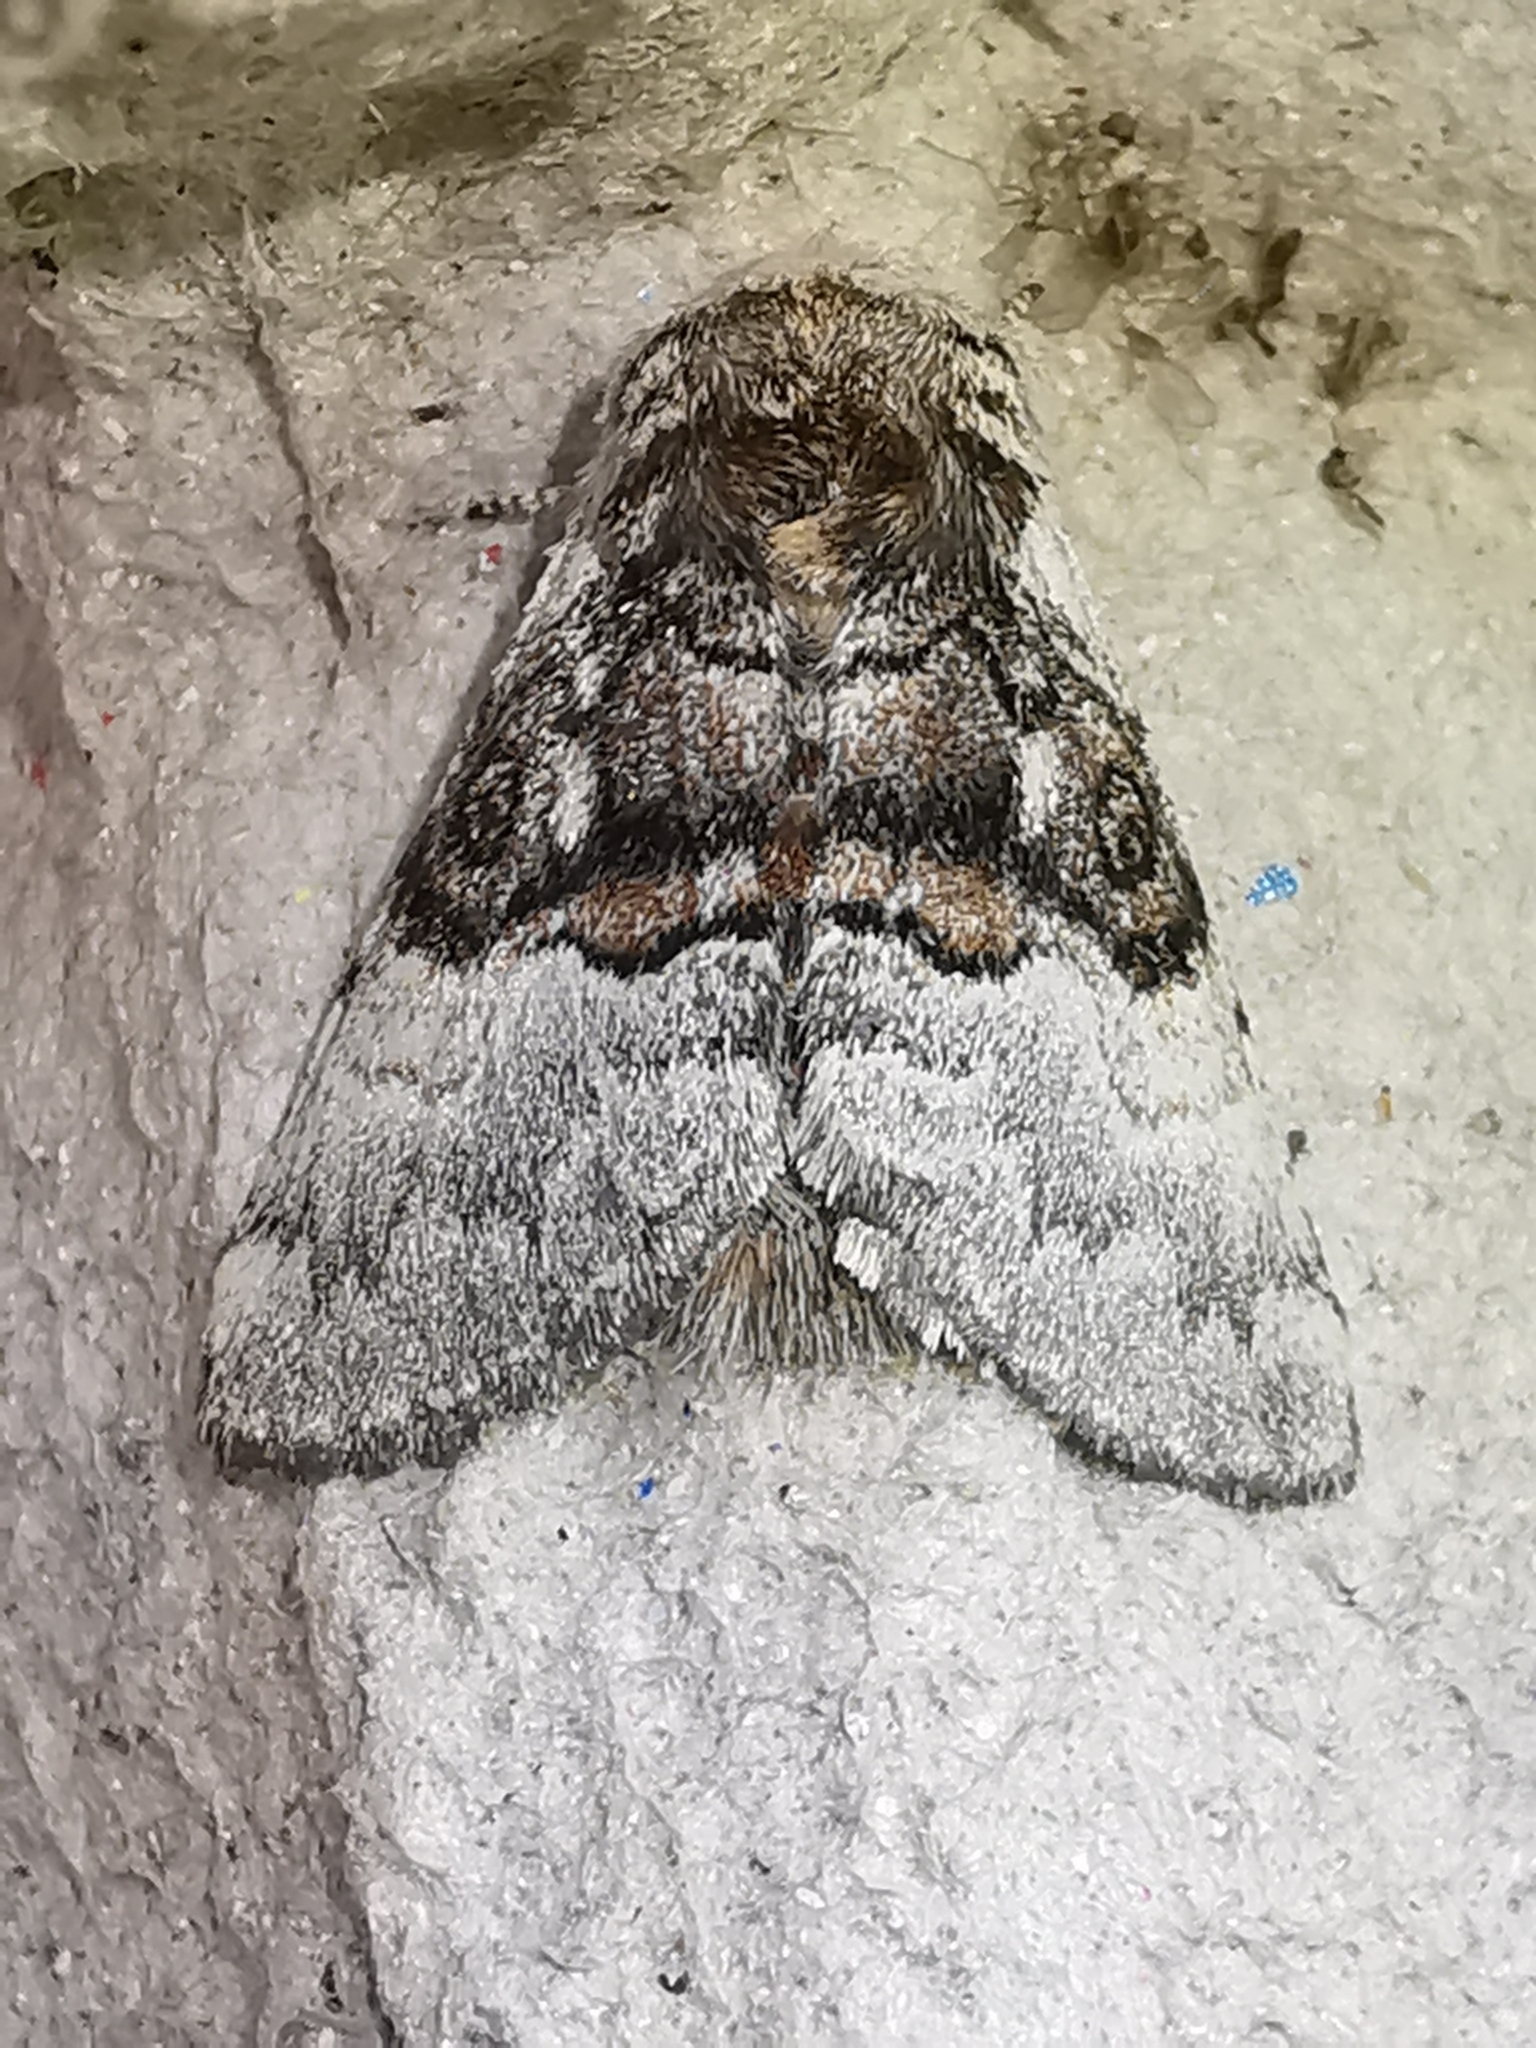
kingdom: Animalia
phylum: Arthropoda
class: Insecta
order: Lepidoptera
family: Noctuidae
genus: Colocasia
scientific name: Colocasia coryli
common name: Nut-tree tussock
